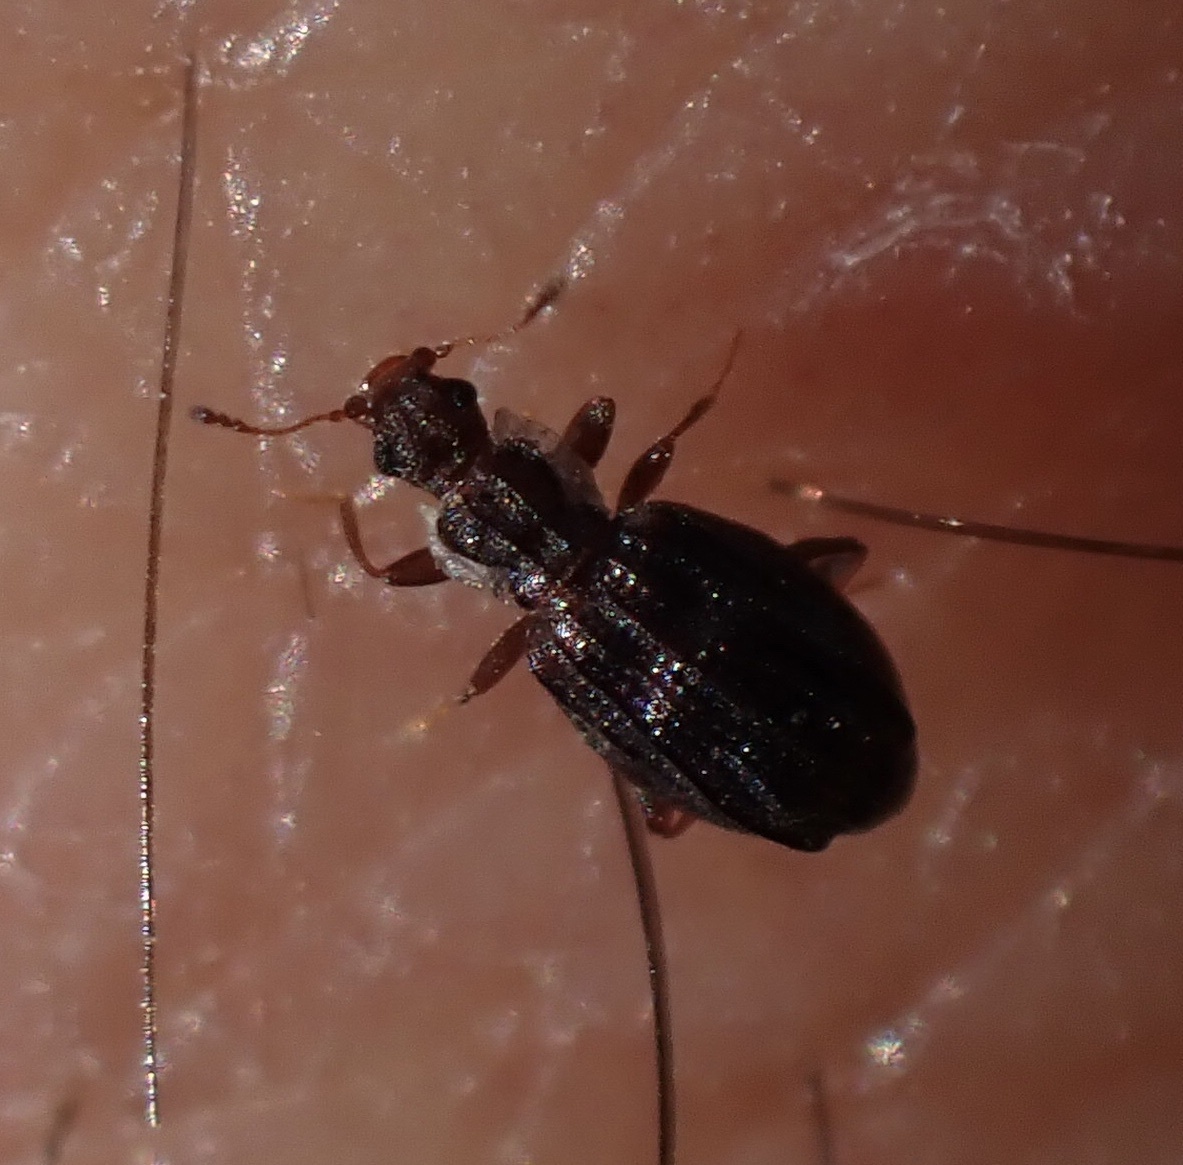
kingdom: Animalia
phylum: Arthropoda
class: Insecta
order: Coleoptera
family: Latridiidae
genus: Cartodere
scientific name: Cartodere nodifer
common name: Humpbacked minute scavenger beetle
